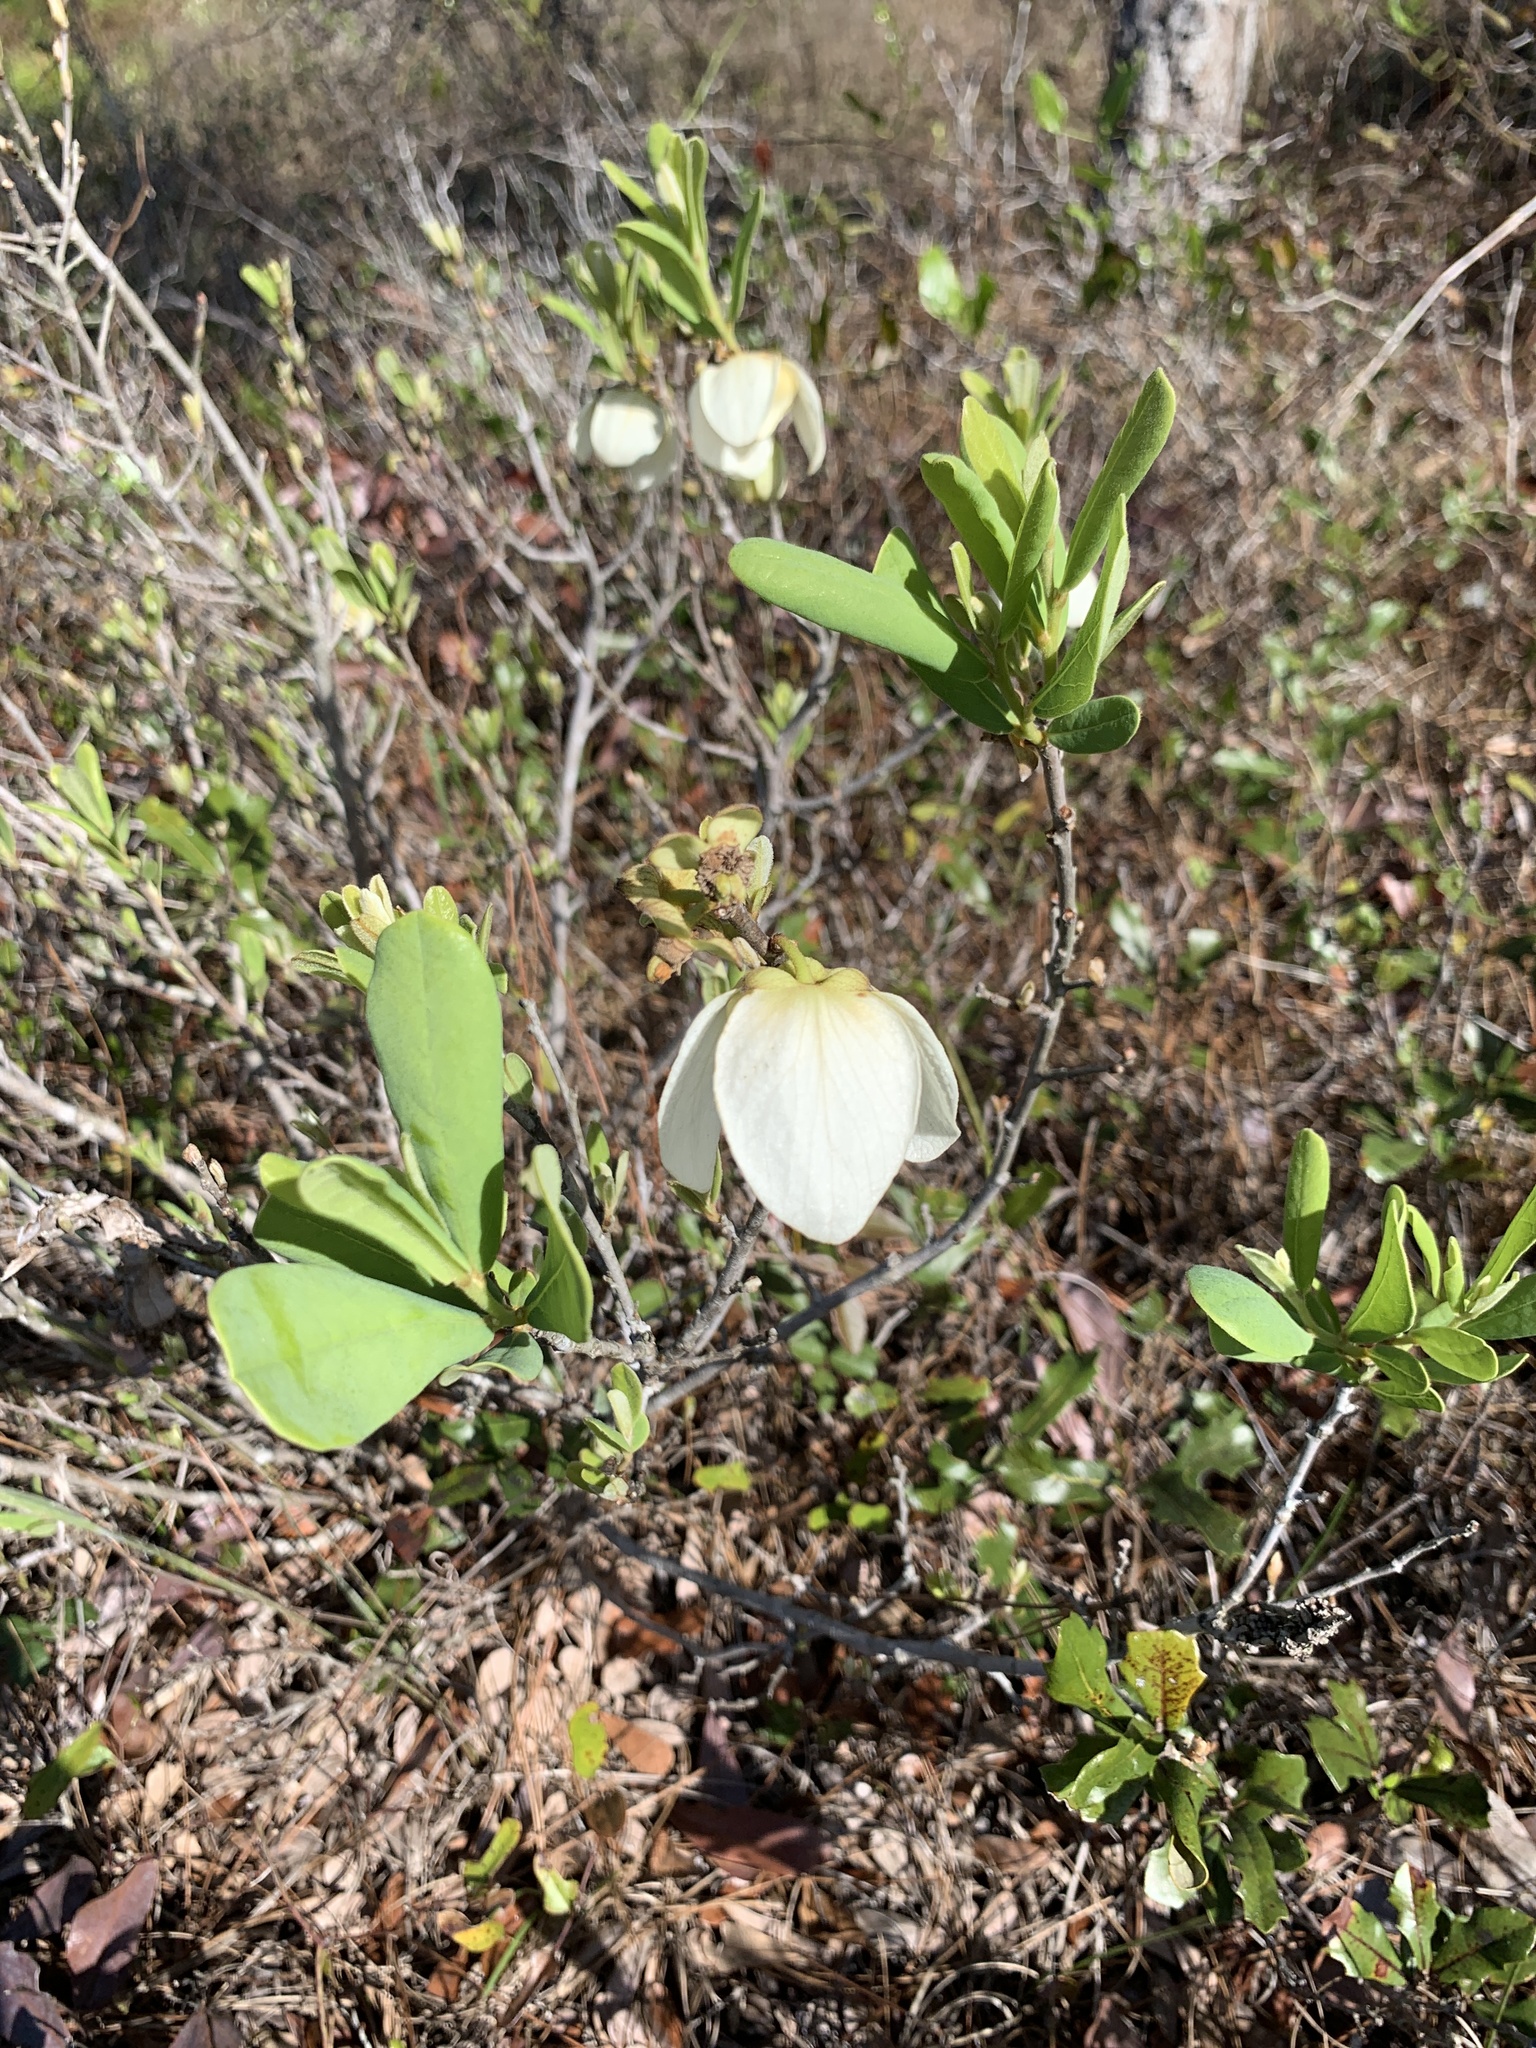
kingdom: Plantae
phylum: Tracheophyta
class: Magnoliopsida
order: Magnoliales
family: Annonaceae
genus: Asimina
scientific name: Asimina reticulata
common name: Flag pawpaw
